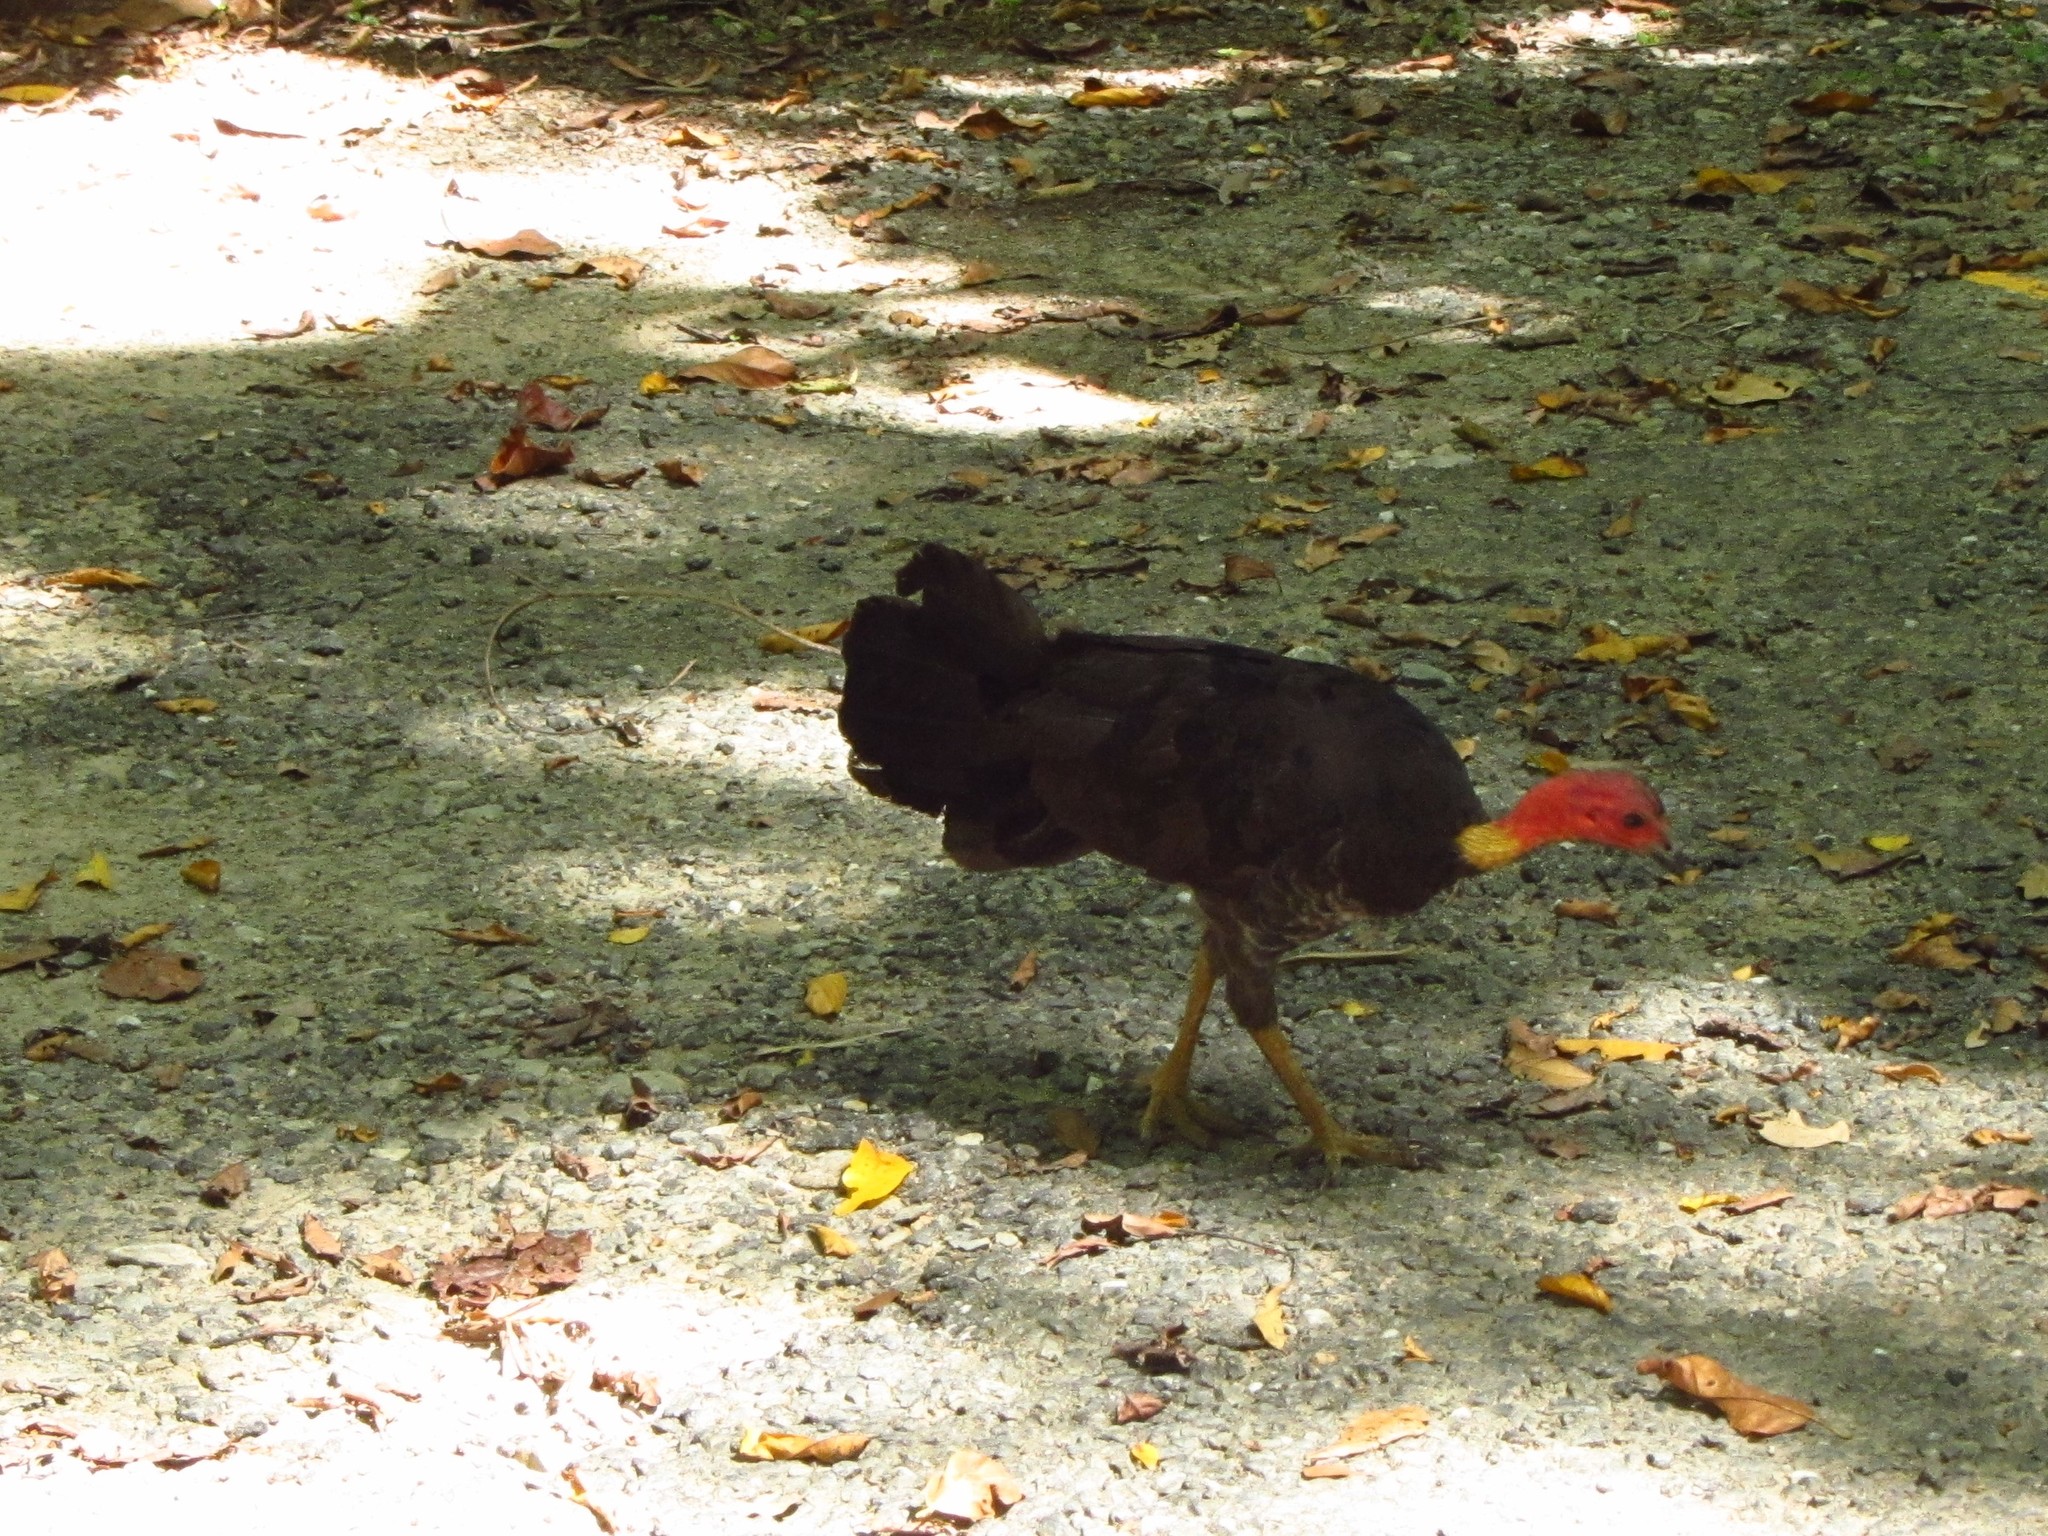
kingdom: Animalia
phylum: Chordata
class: Aves
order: Galliformes
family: Megapodiidae
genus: Alectura
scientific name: Alectura lathami
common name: Australian brushturkey
